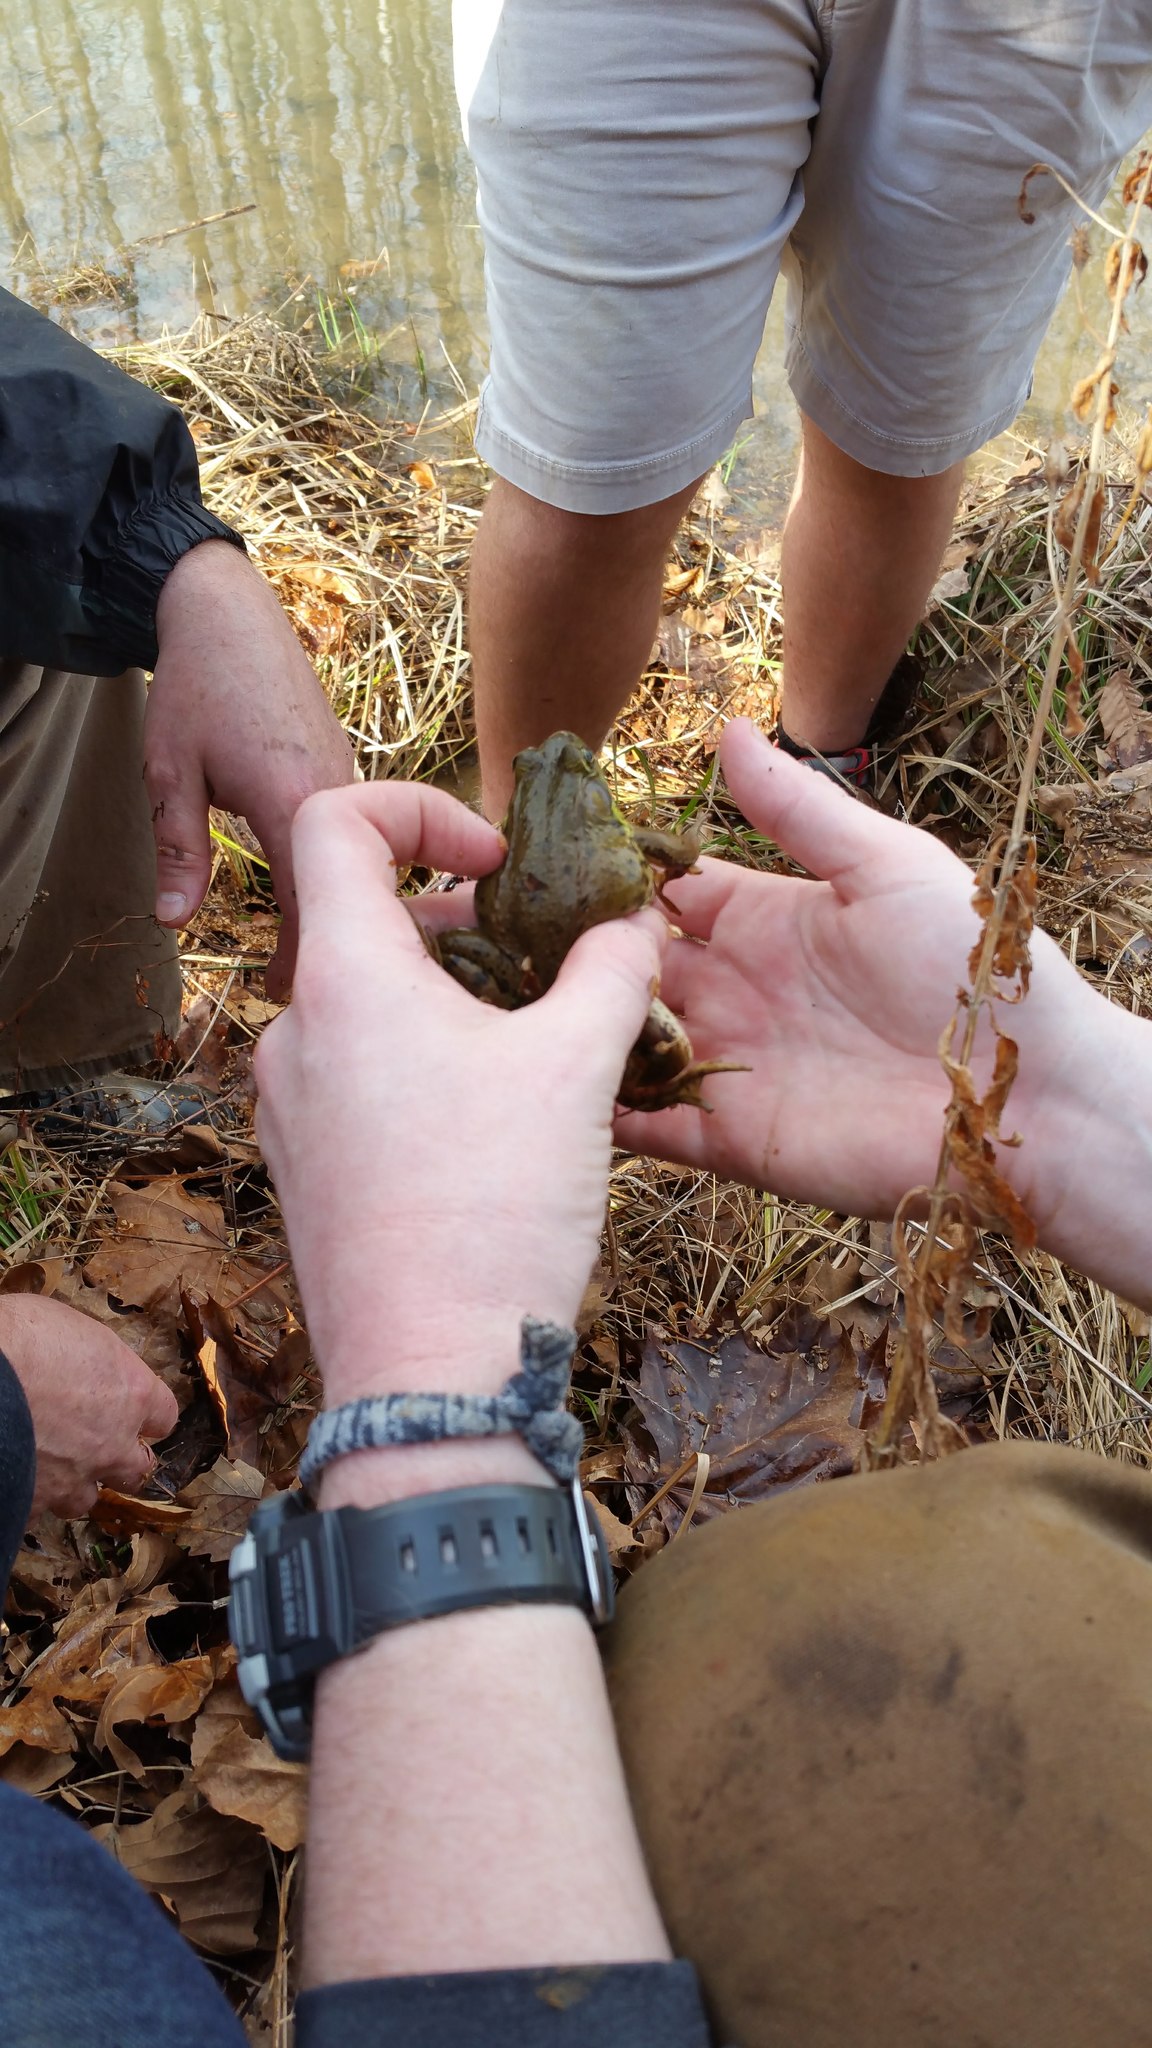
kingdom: Animalia
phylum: Chordata
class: Amphibia
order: Anura
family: Ranidae
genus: Lithobates
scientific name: Lithobates clamitans
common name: Green frog
